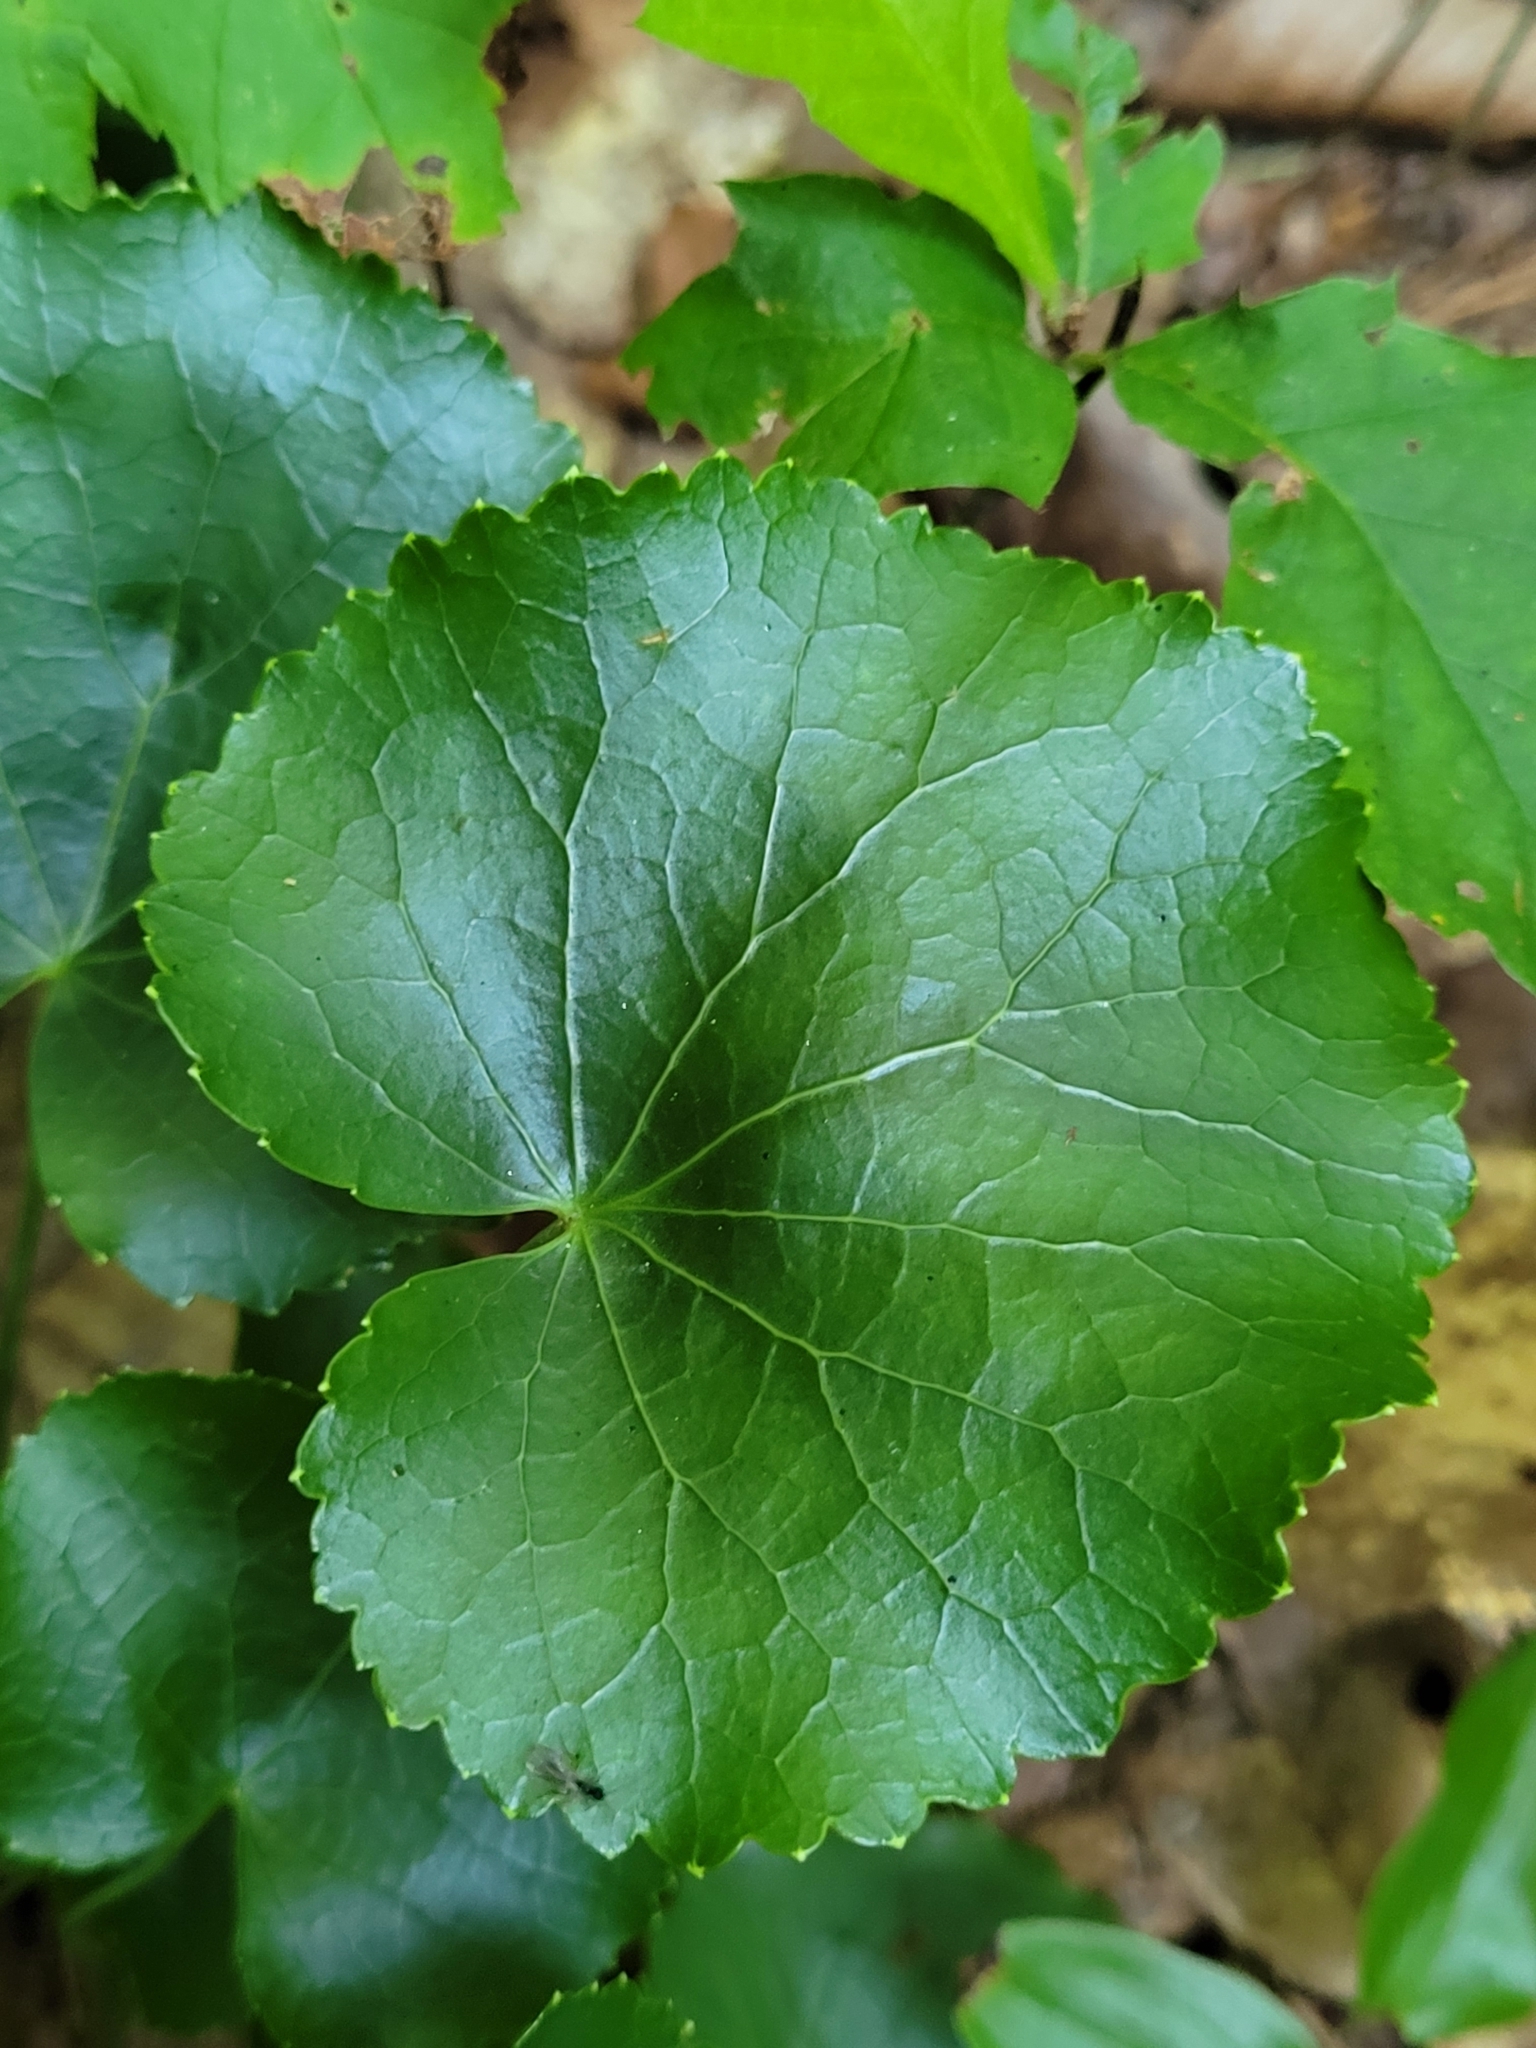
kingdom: Plantae
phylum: Tracheophyta
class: Magnoliopsida
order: Ericales
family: Diapensiaceae
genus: Galax
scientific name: Galax urceolata
